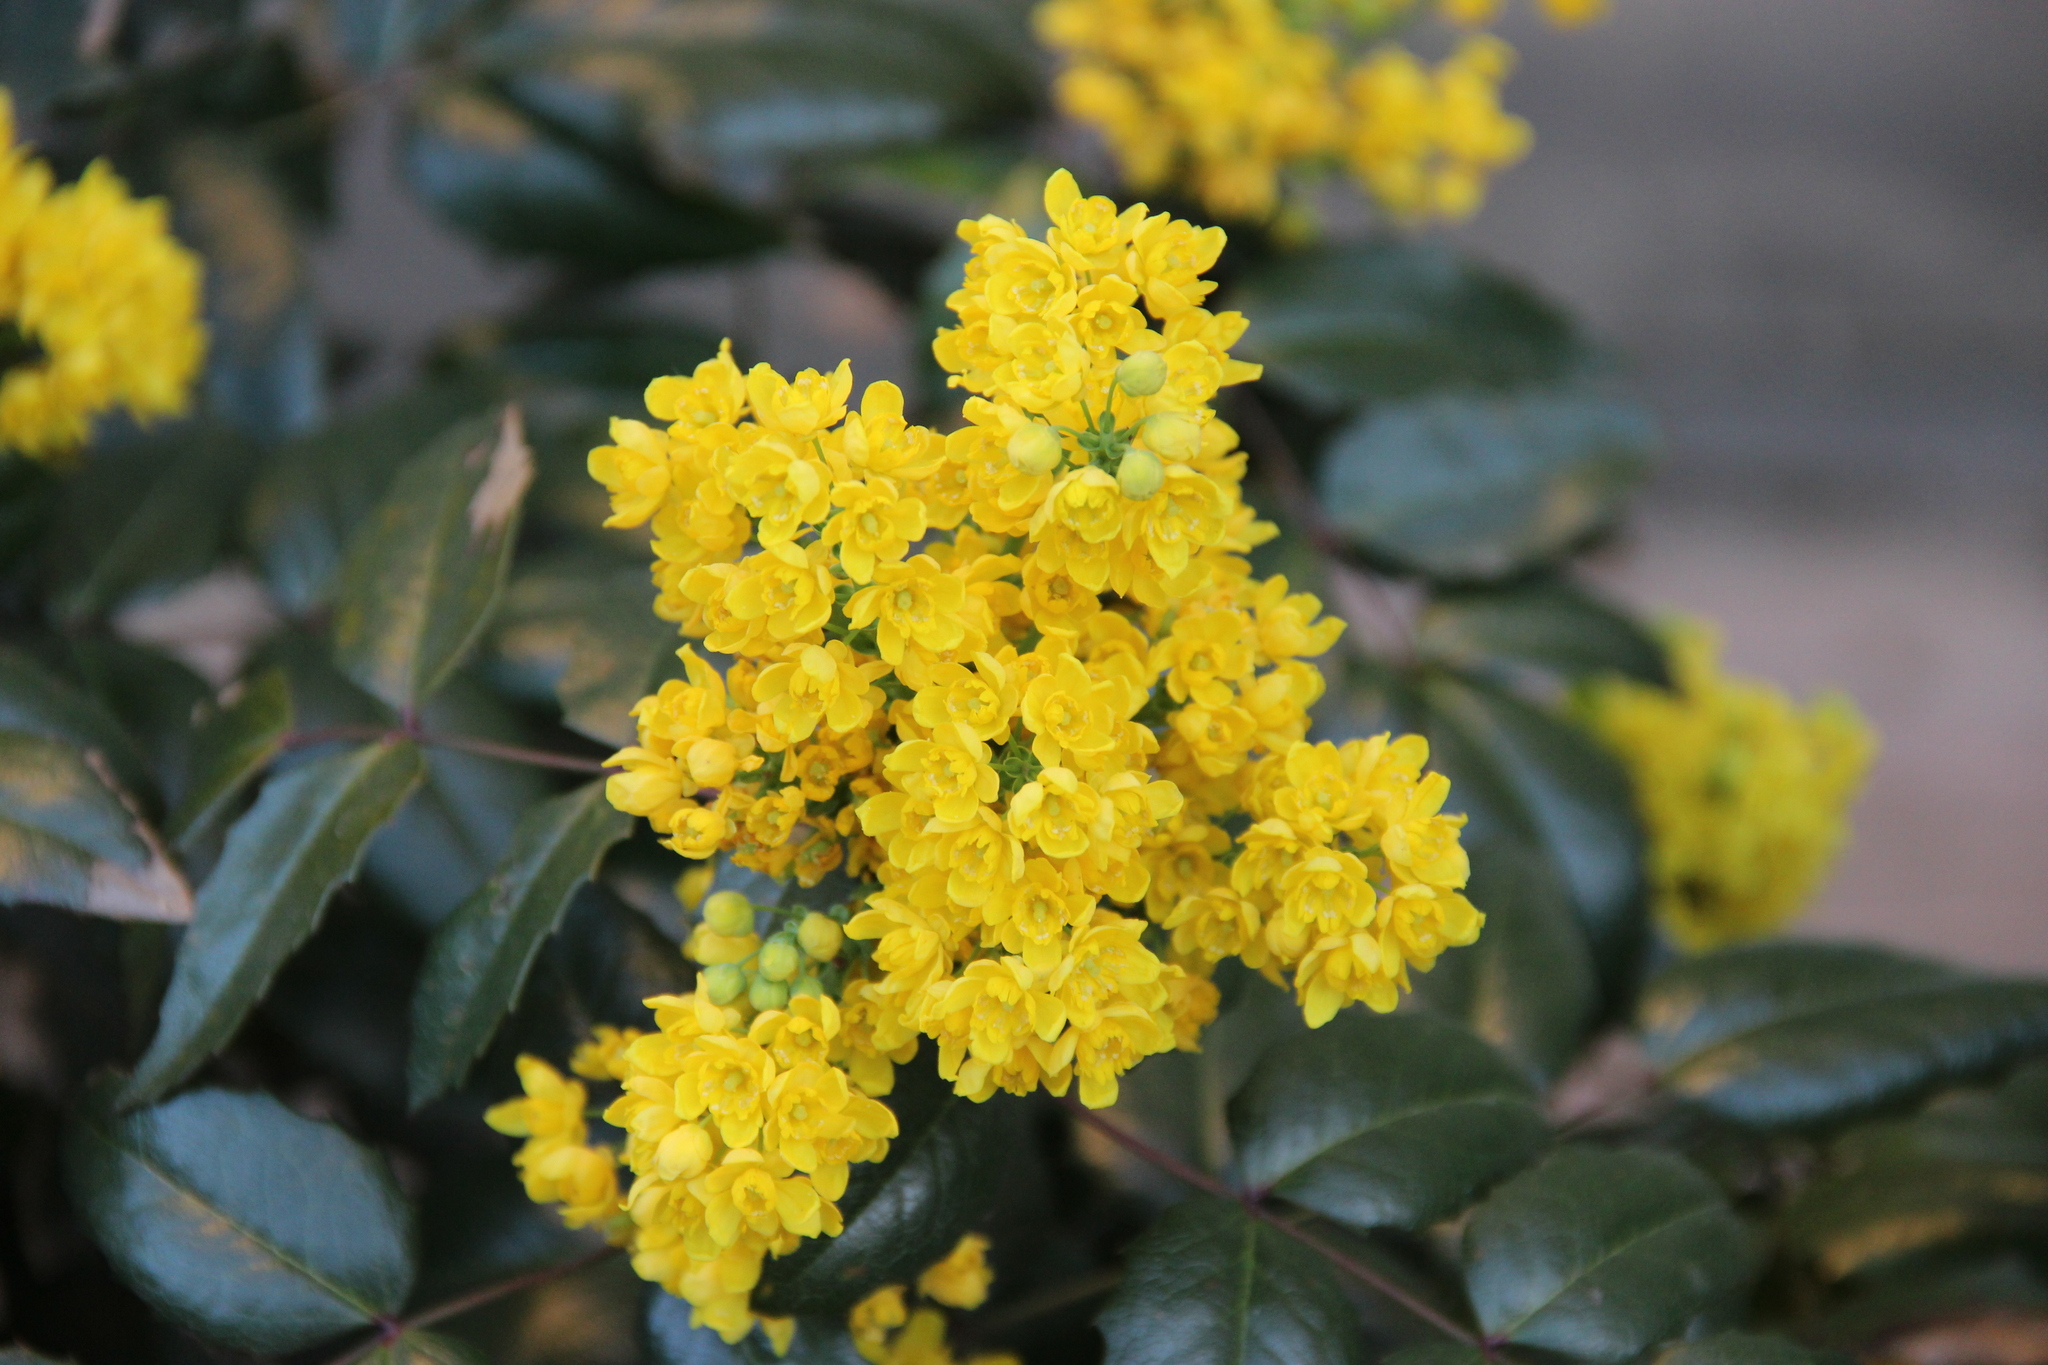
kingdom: Plantae
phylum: Tracheophyta
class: Magnoliopsida
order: Ranunculales
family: Berberidaceae
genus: Mahonia
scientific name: Mahonia aquifolium
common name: Oregon-grape
